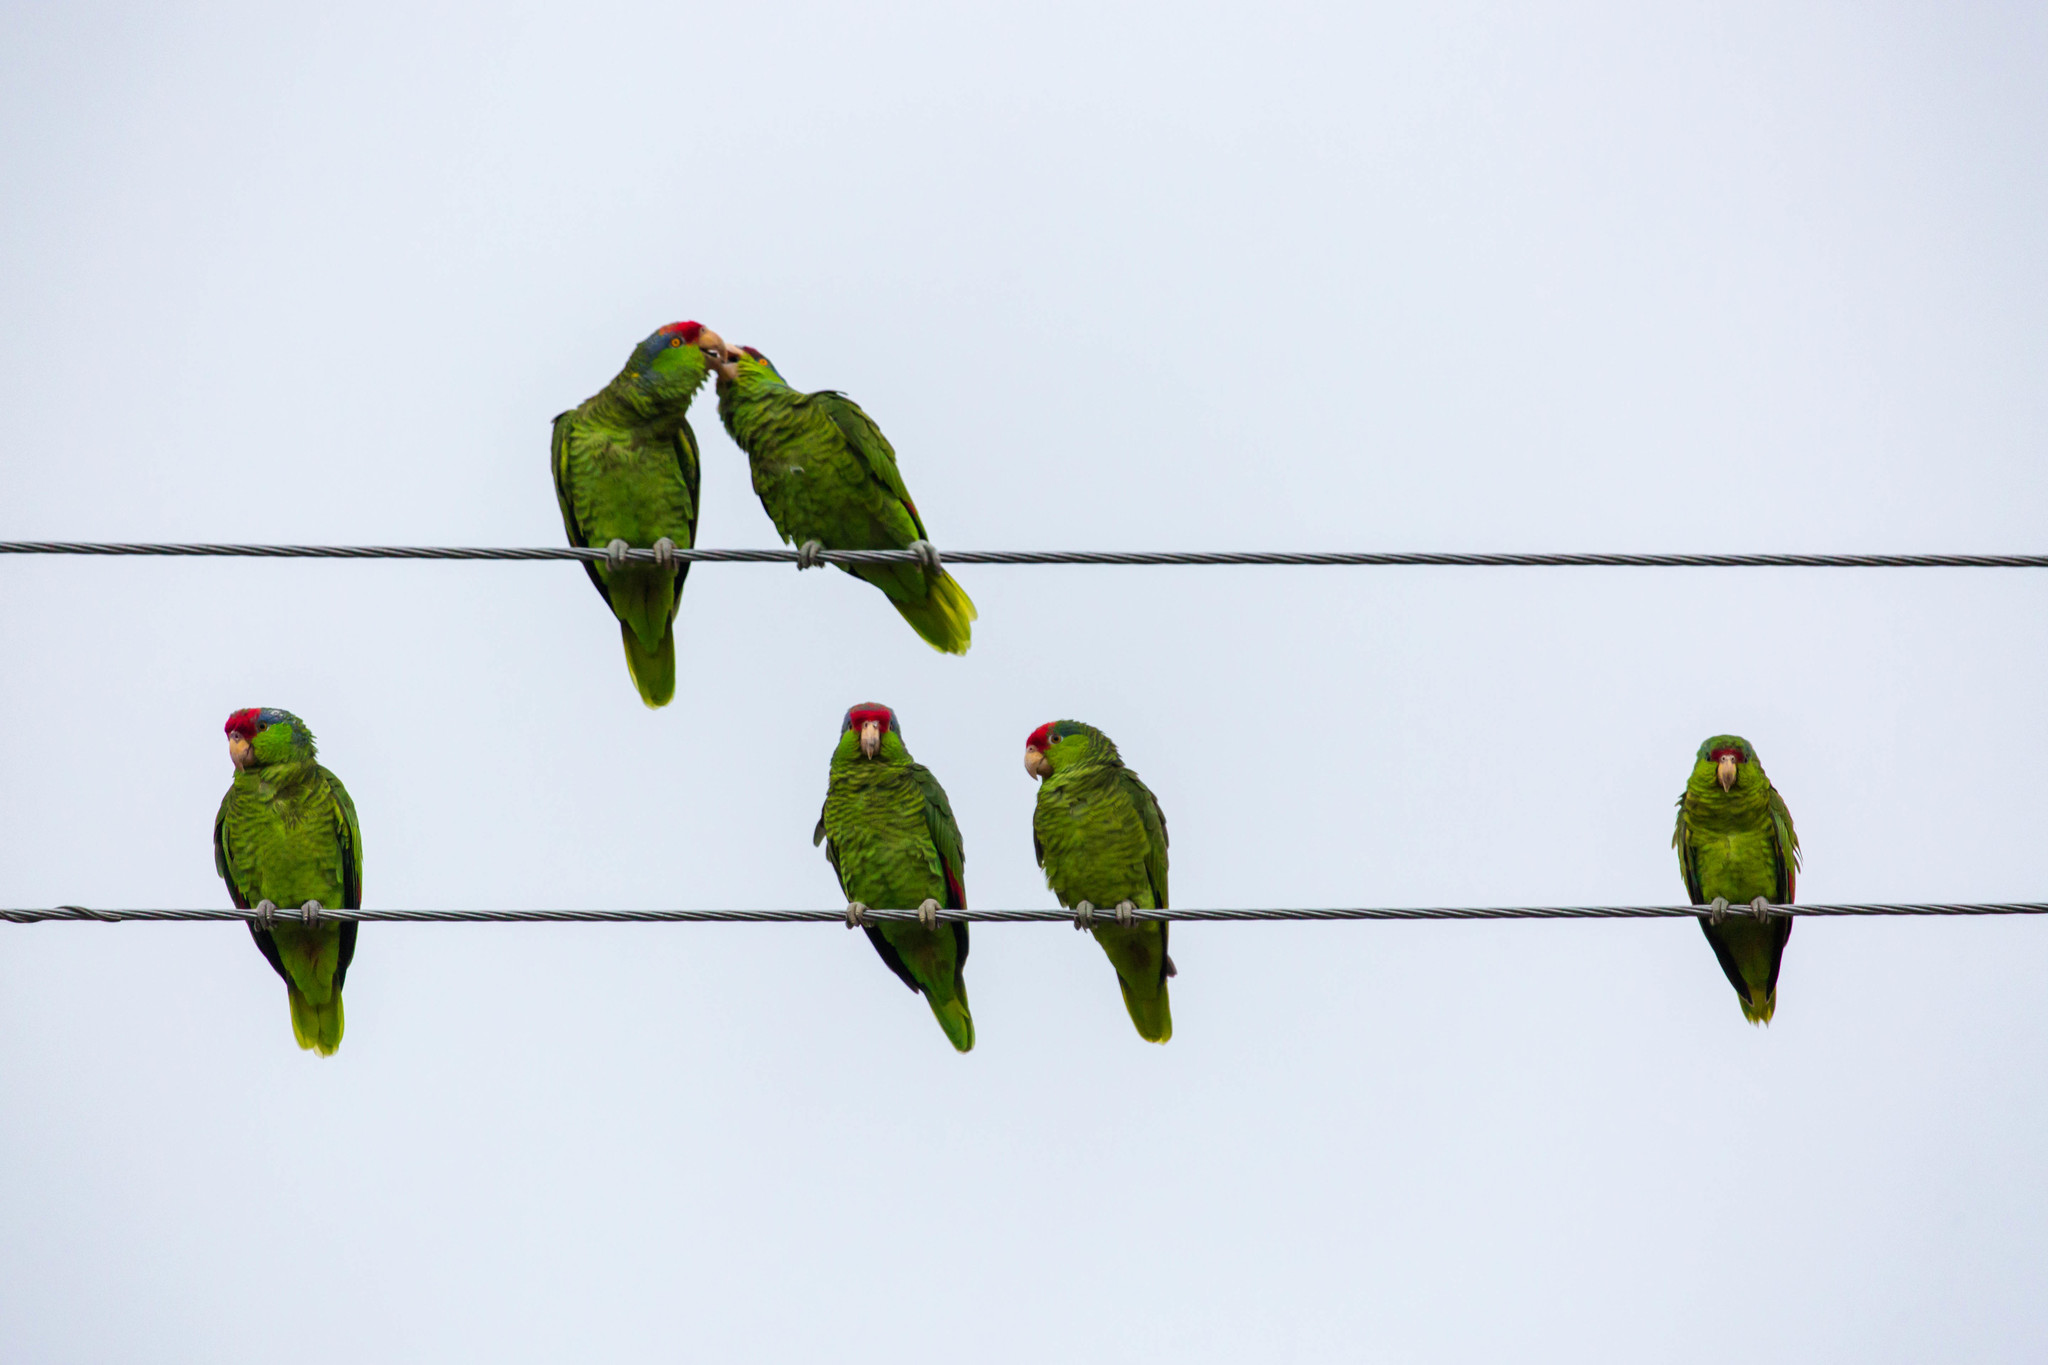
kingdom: Animalia
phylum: Chordata
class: Aves
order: Psittaciformes
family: Psittacidae
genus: Amazona
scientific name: Amazona viridigenalis
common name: Red-crowned amazon
